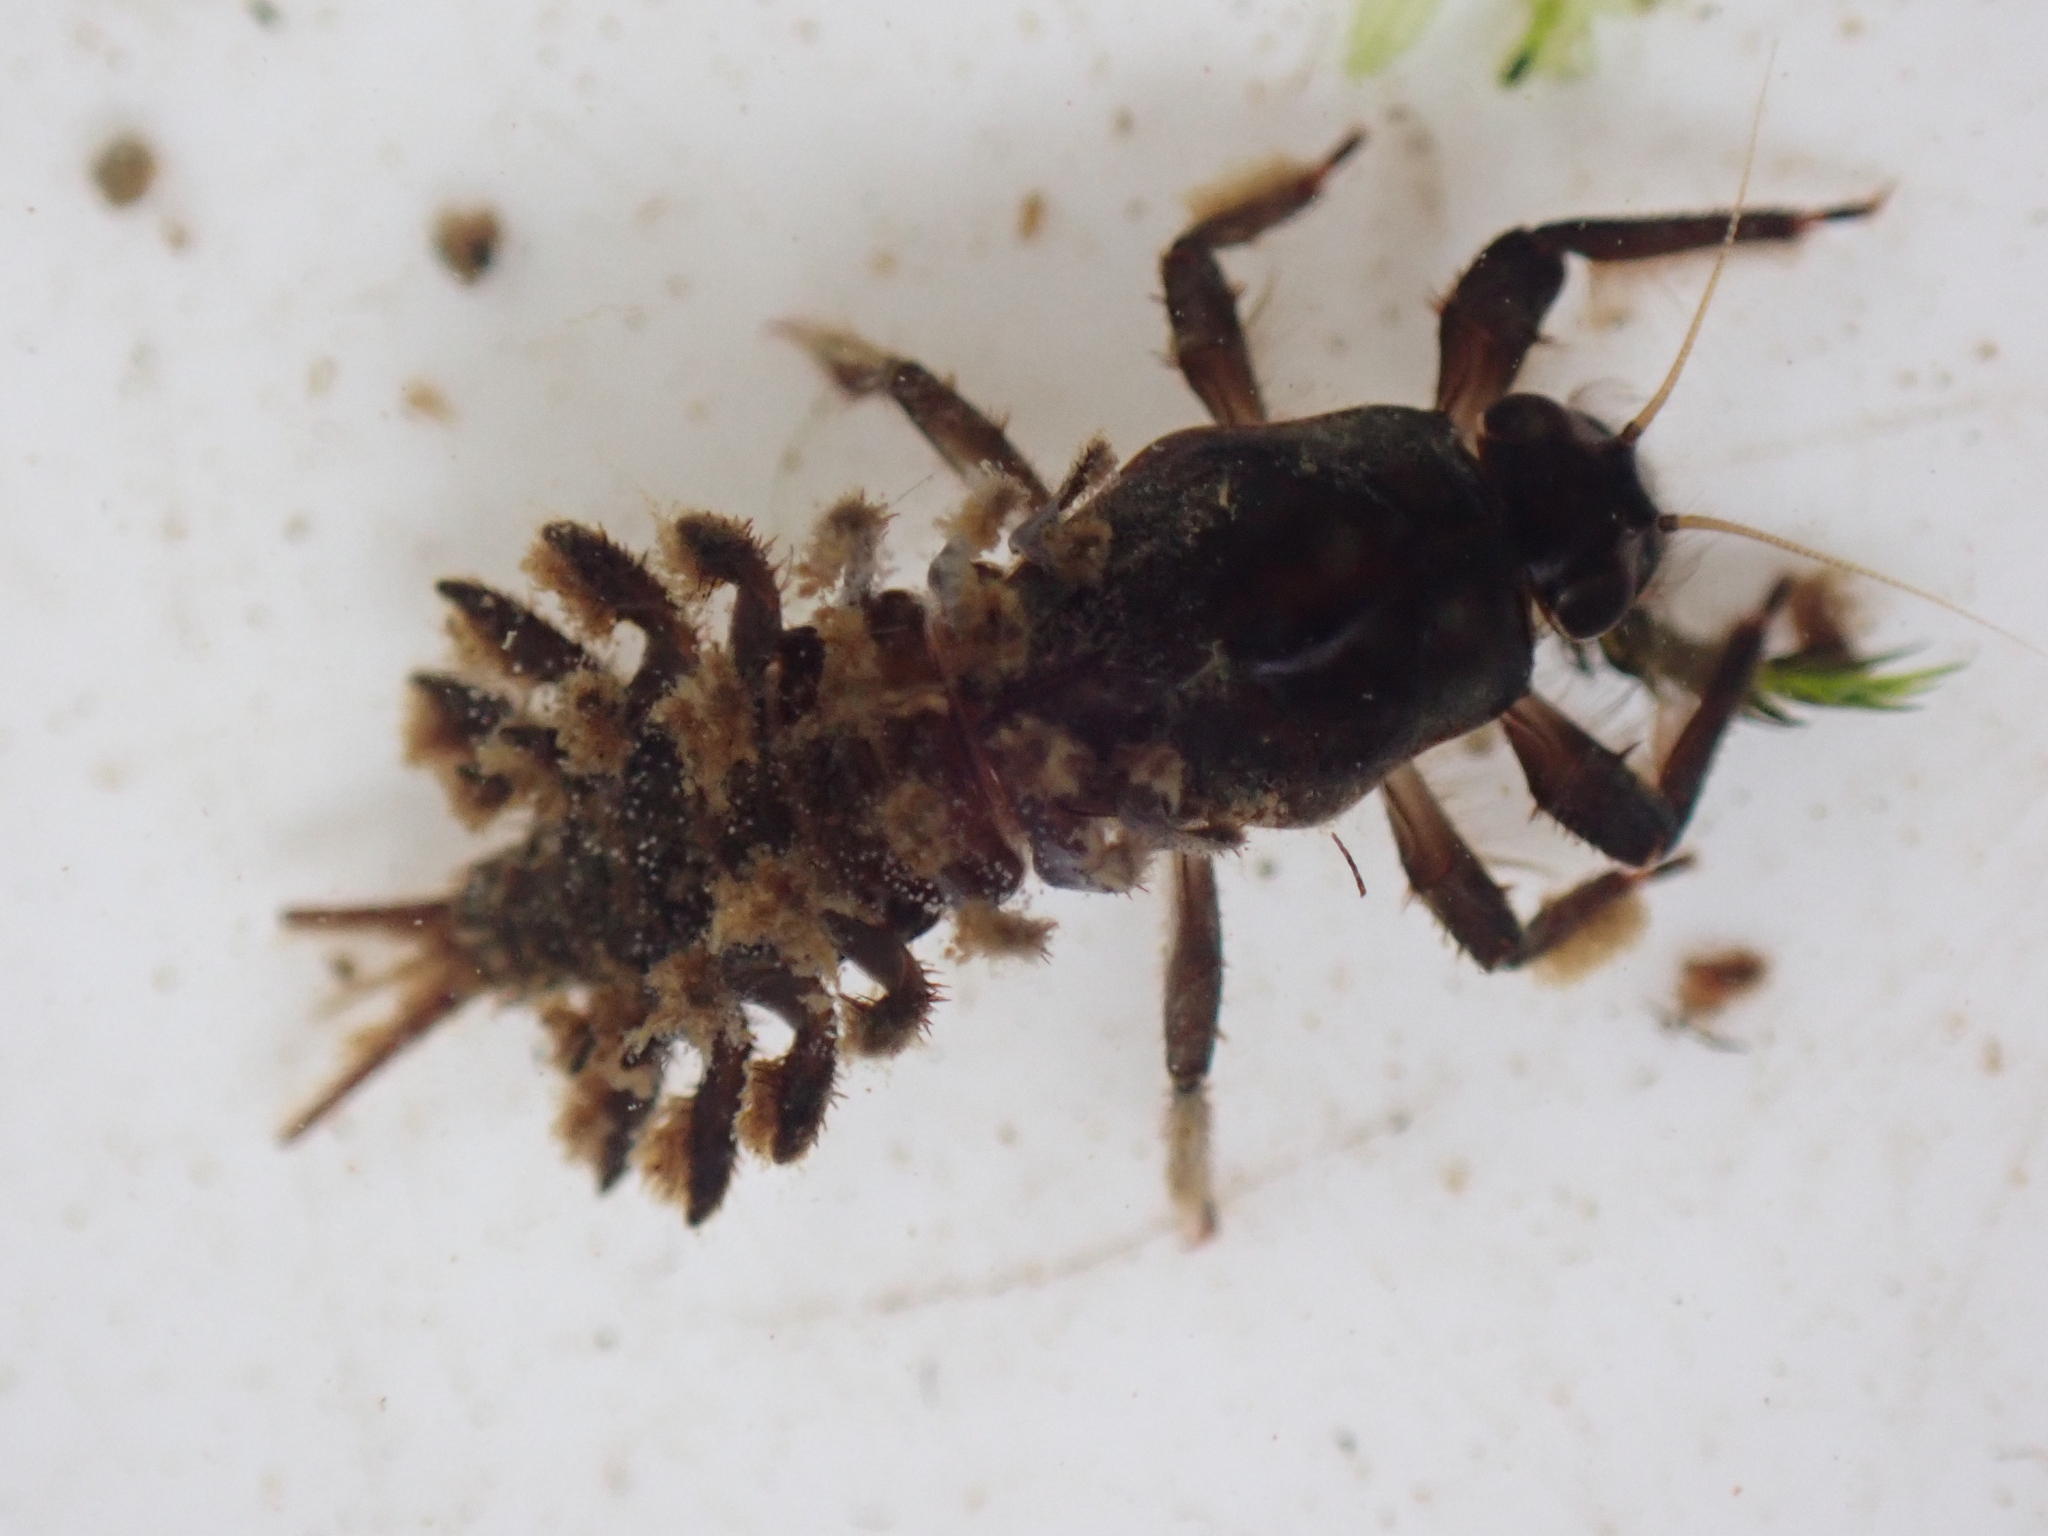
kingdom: Animalia
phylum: Arthropoda
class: Insecta
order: Ephemeroptera
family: Coloburiscidae
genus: Coloburiscus
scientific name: Coloburiscus humeralis
